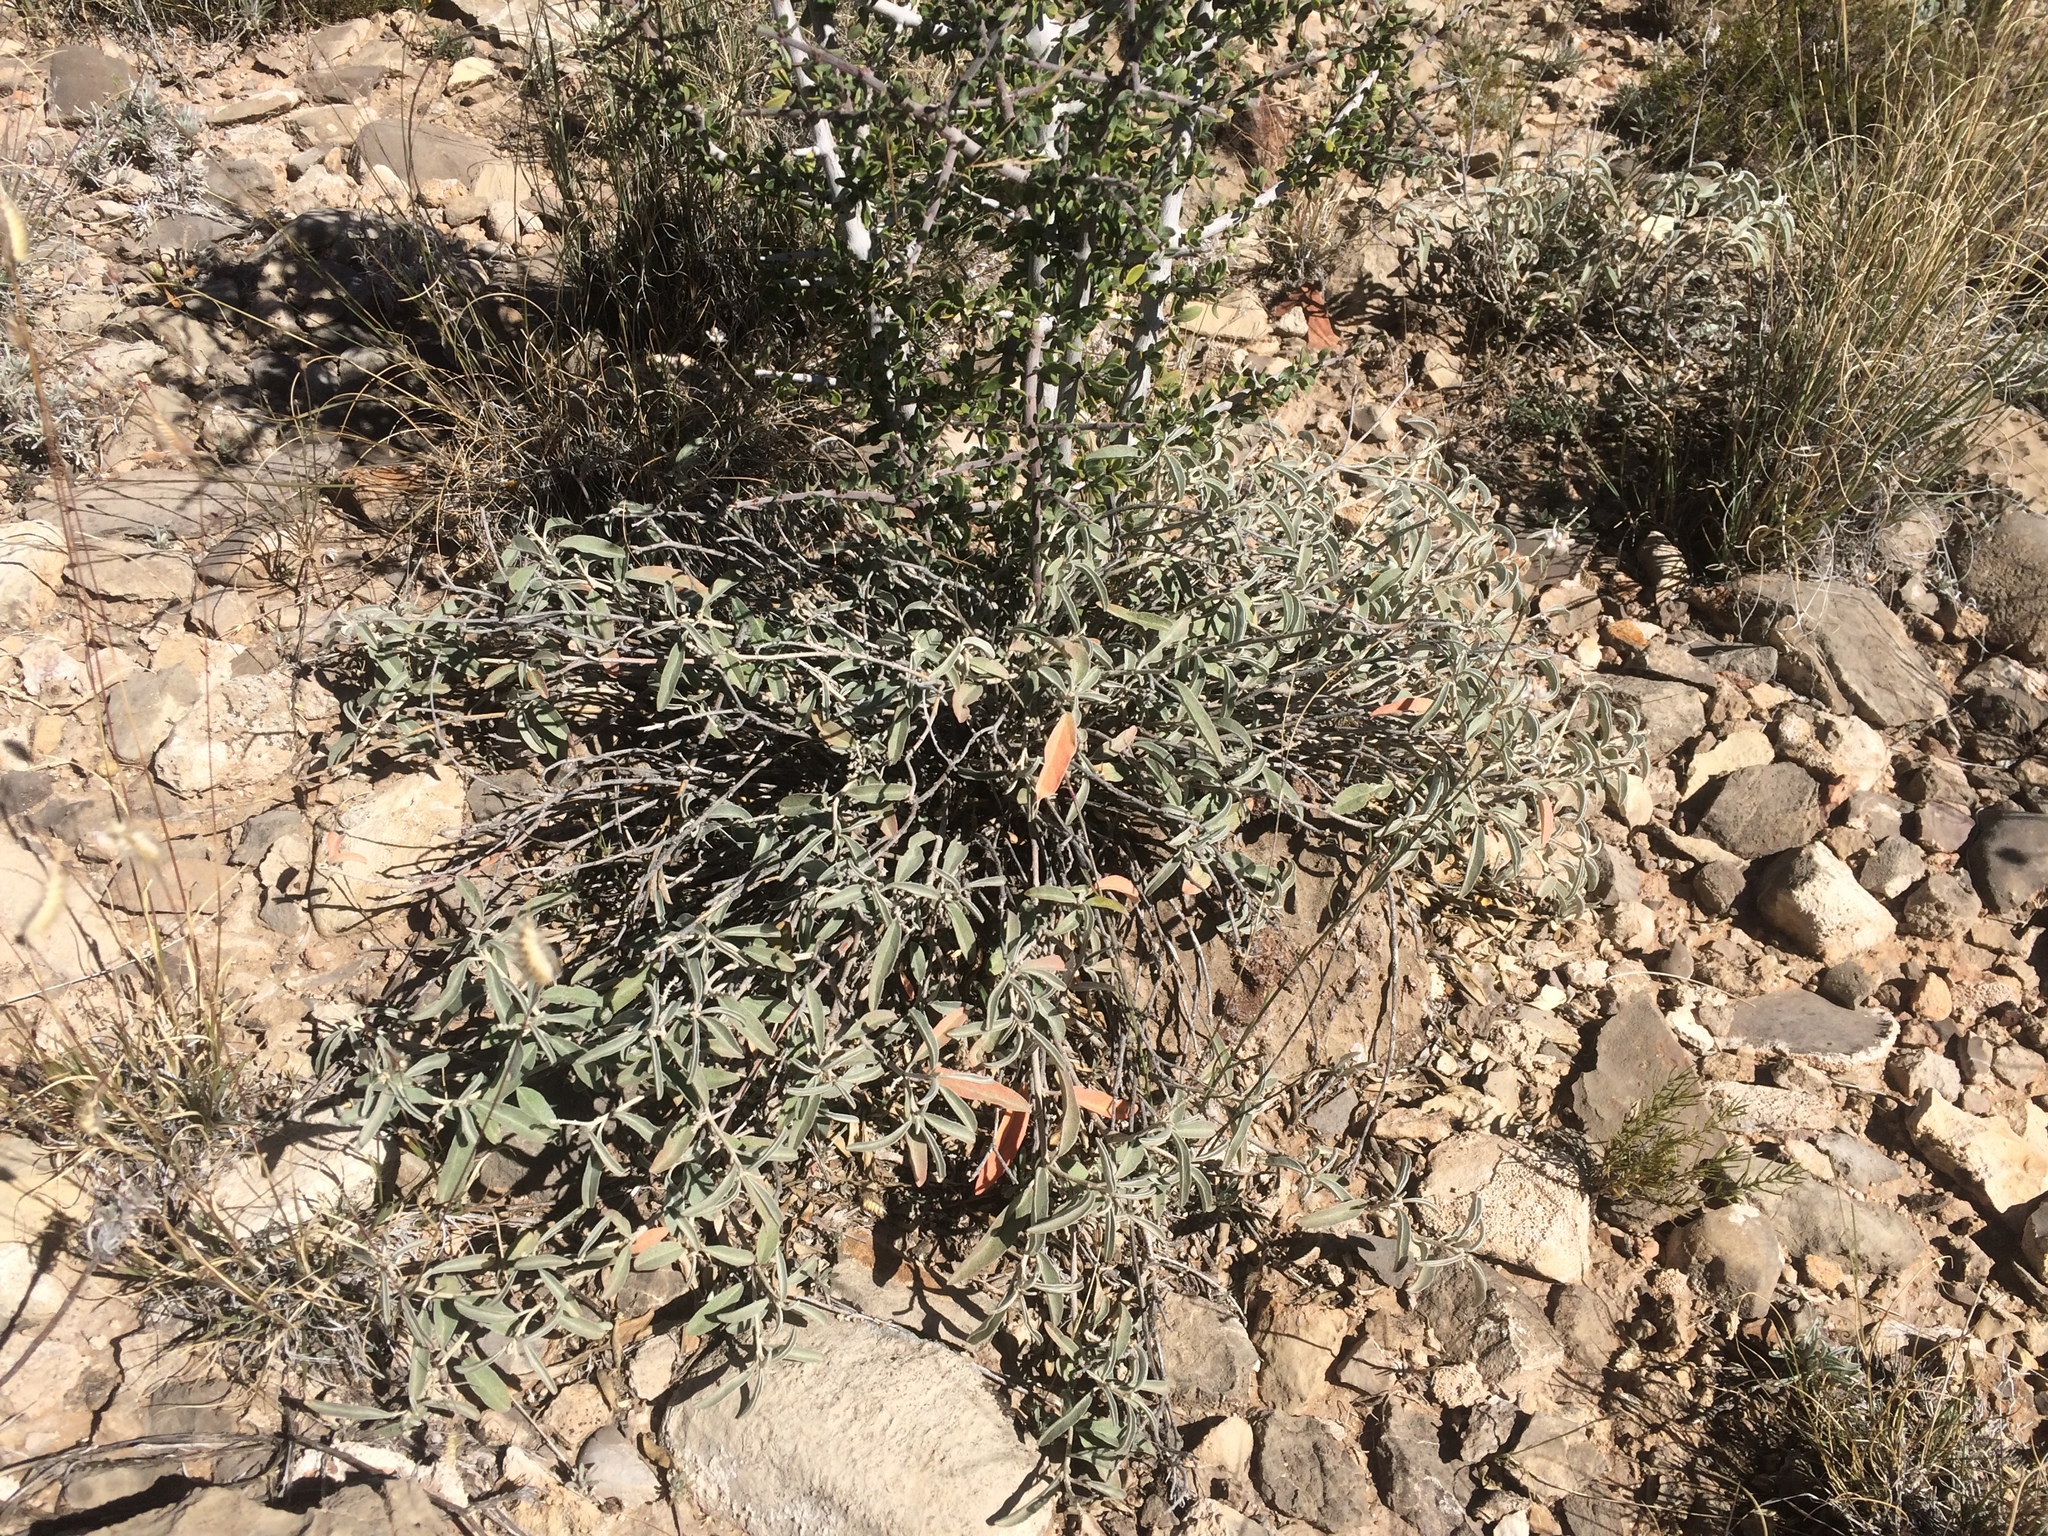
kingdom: Plantae
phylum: Tracheophyta
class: Magnoliopsida
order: Malpighiales
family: Euphorbiaceae
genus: Croton
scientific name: Croton dioicus
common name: Grassland croton
